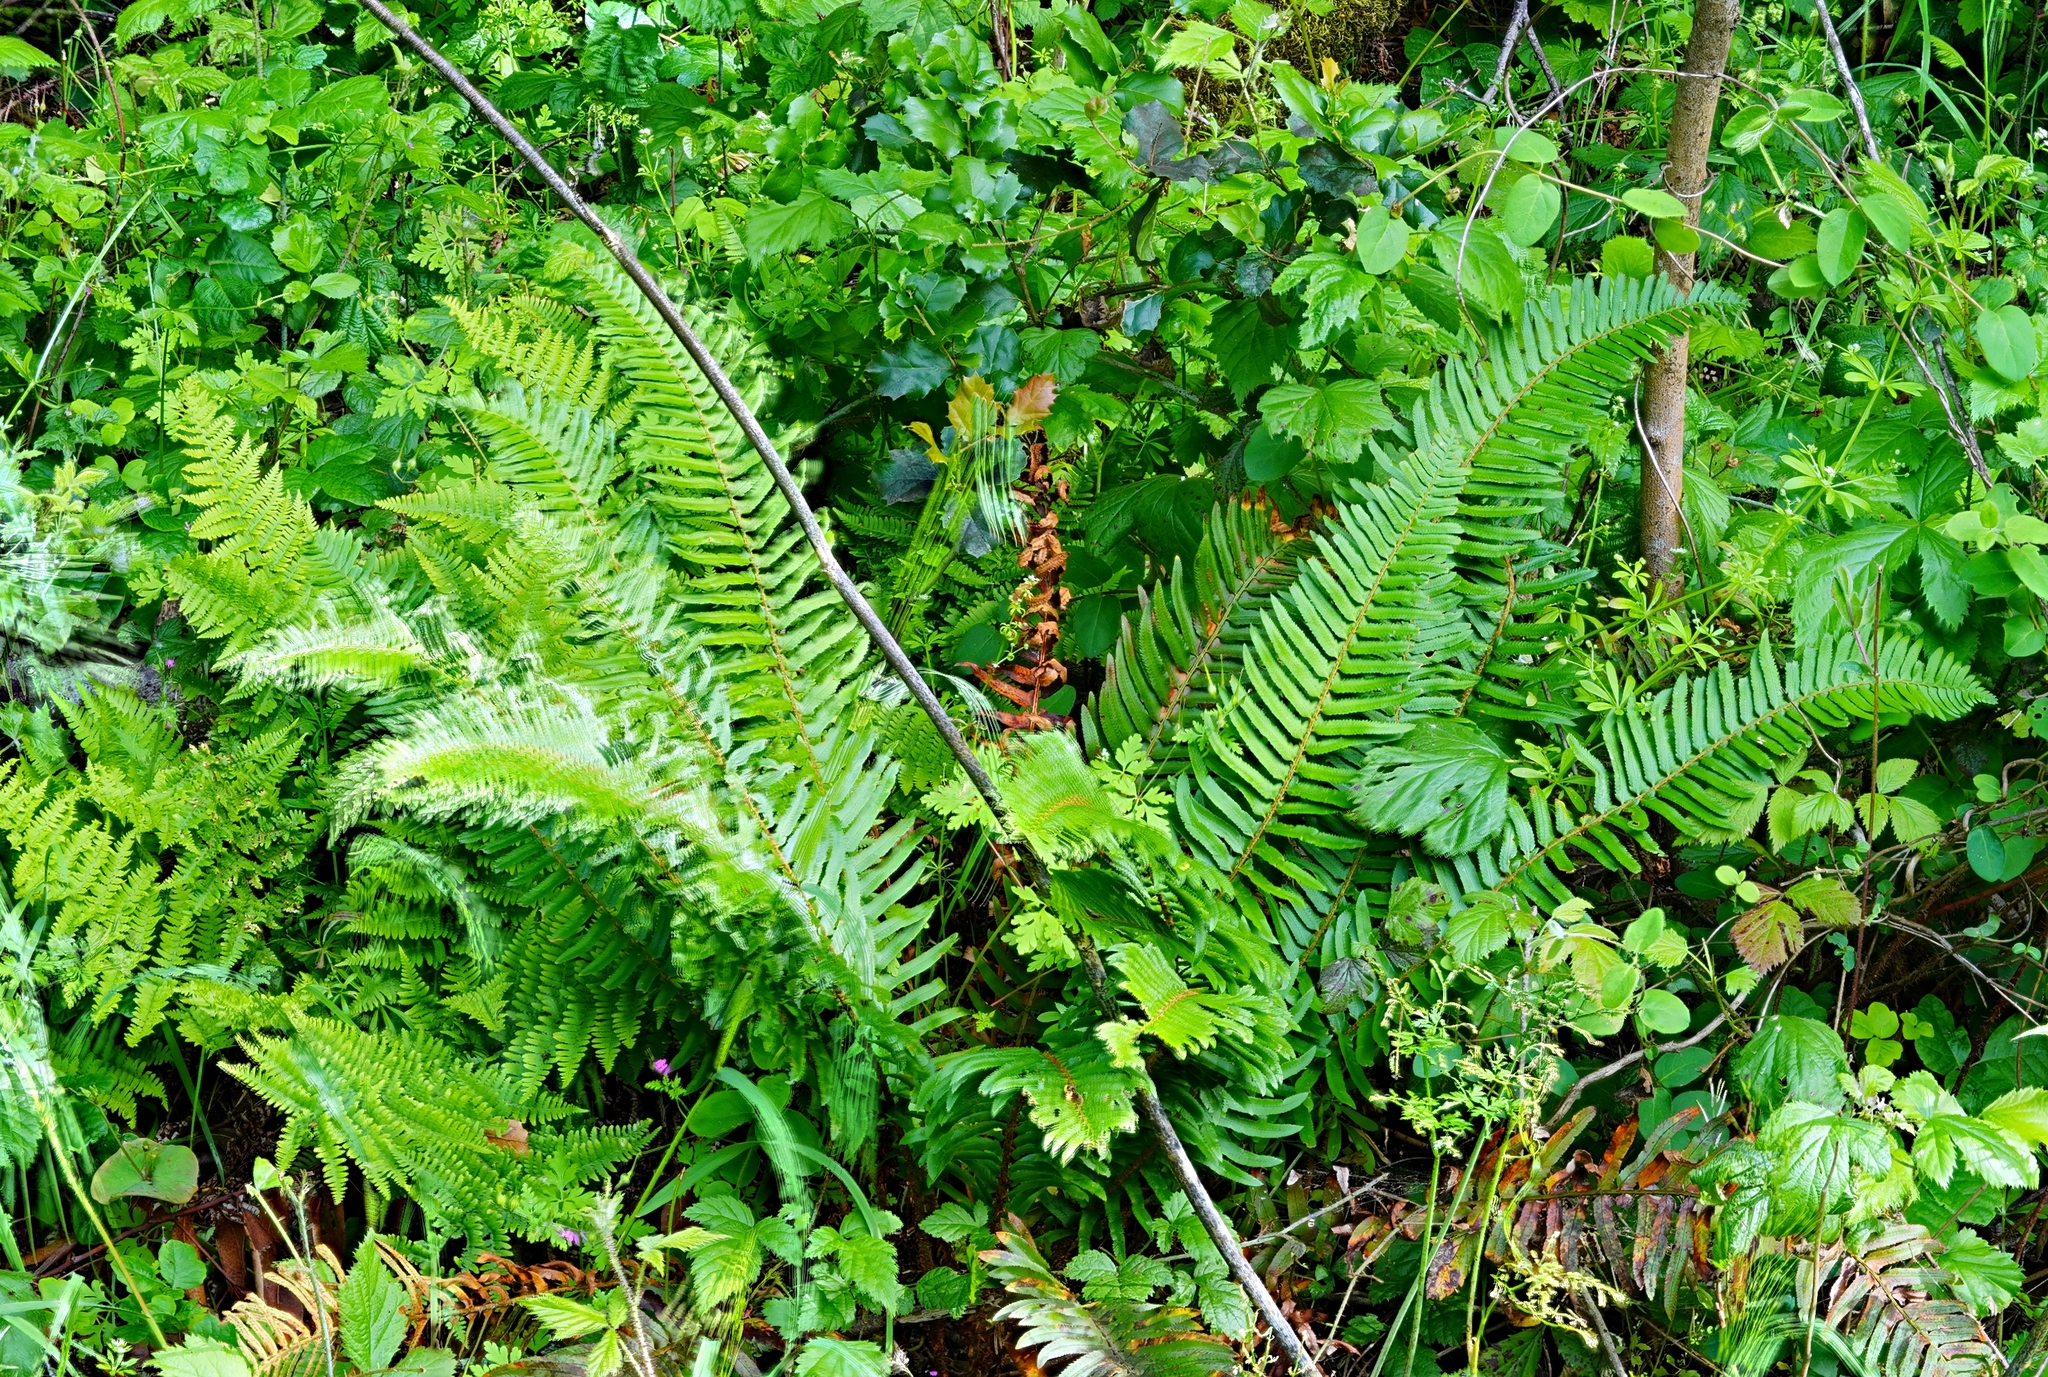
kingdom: Plantae
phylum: Tracheophyta
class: Polypodiopsida
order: Polypodiales
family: Dryopteridaceae
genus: Polystichum
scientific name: Polystichum munitum
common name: Western sword-fern
